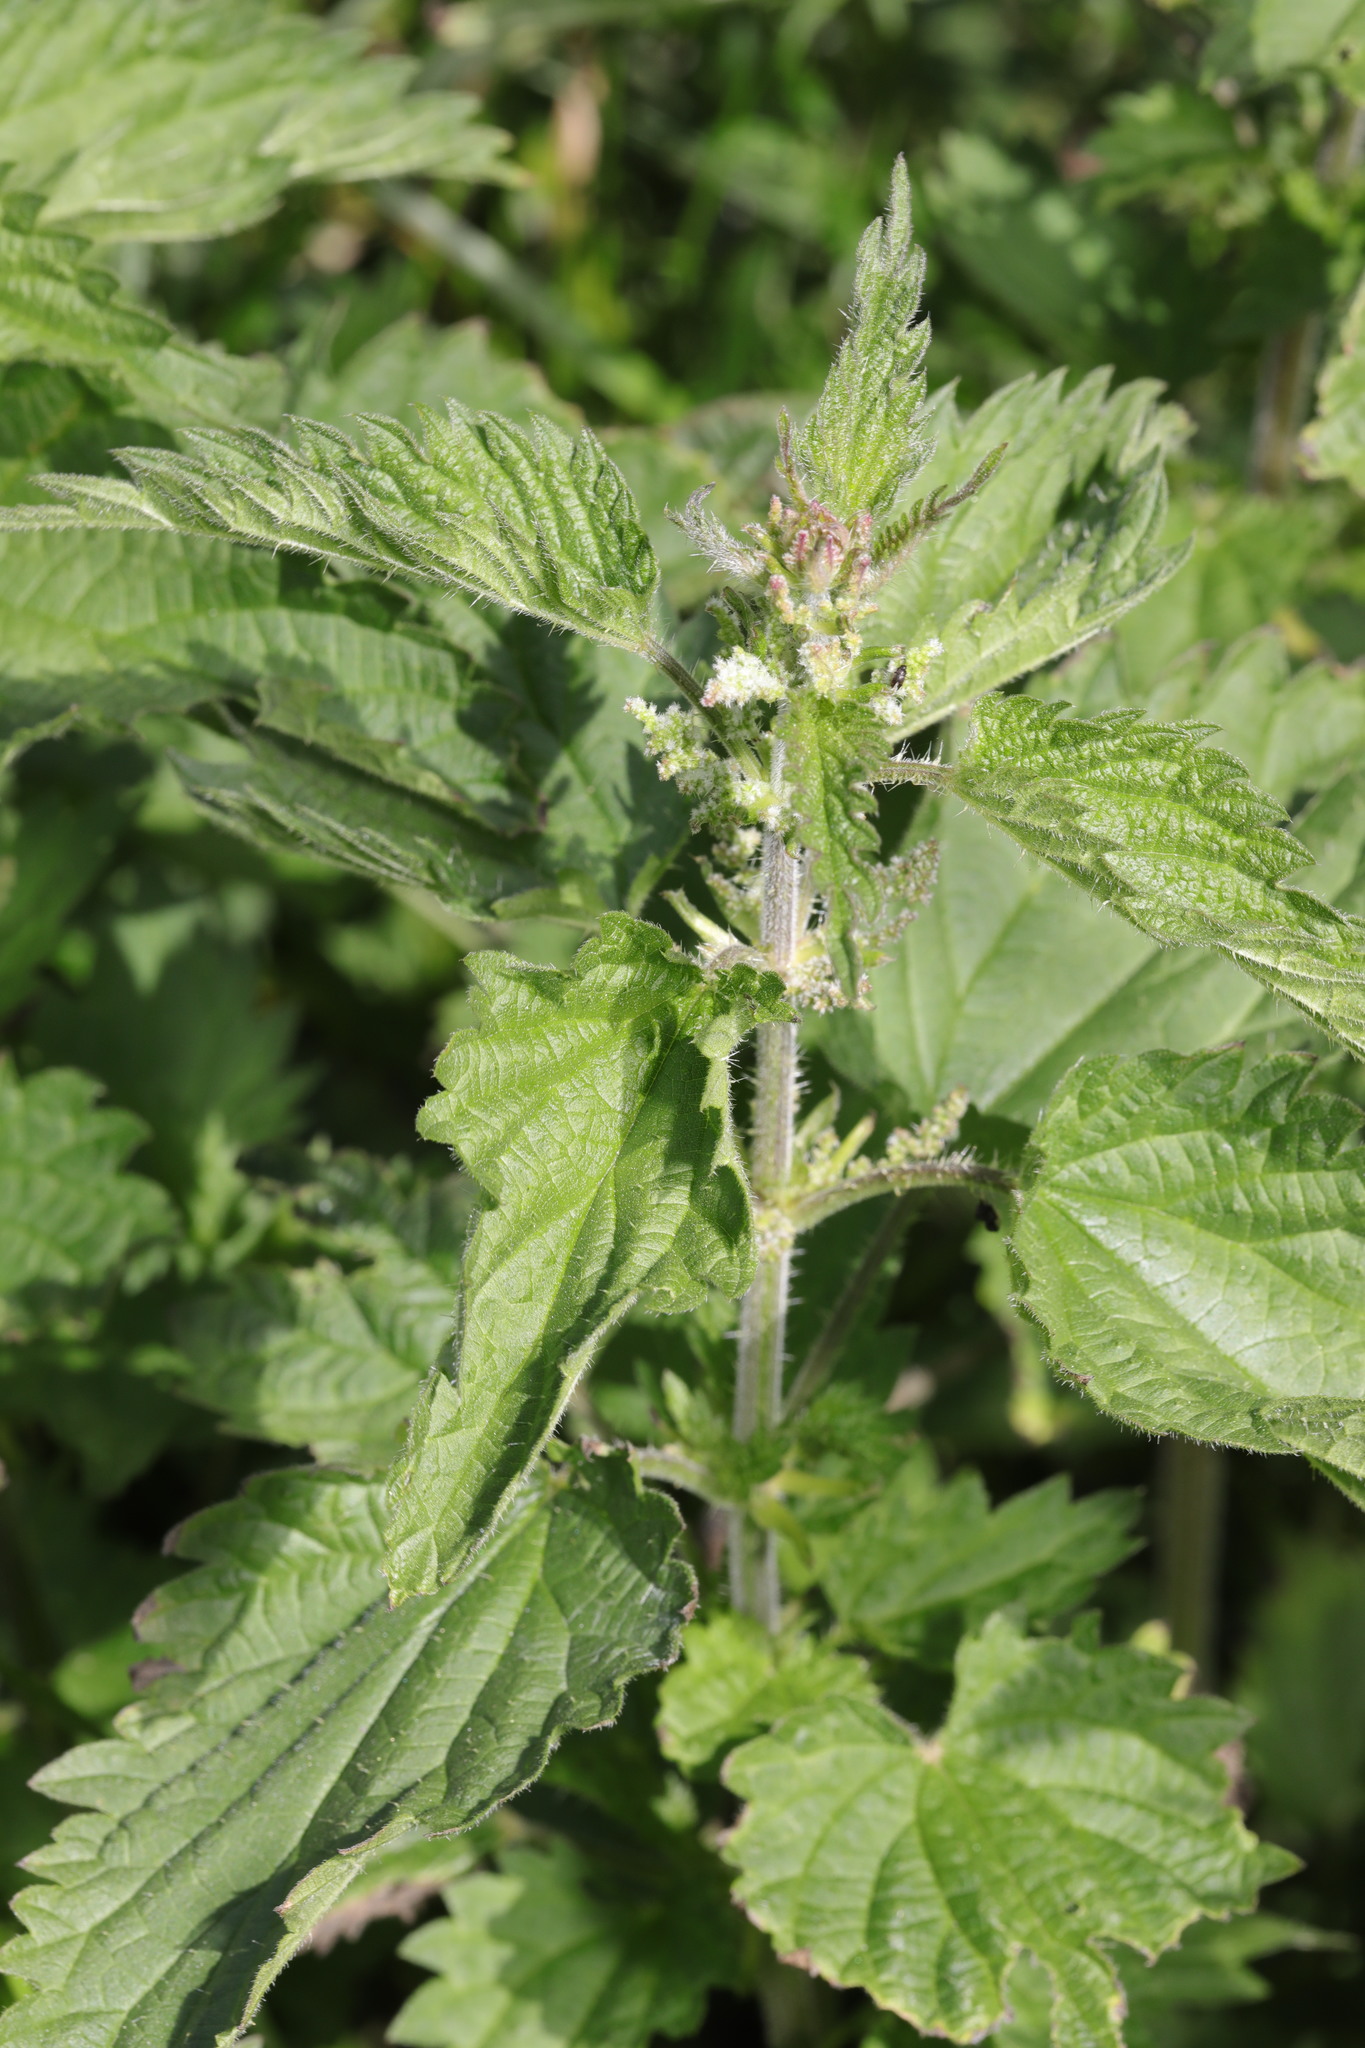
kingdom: Plantae
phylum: Tracheophyta
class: Magnoliopsida
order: Rosales
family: Urticaceae
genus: Urtica
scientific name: Urtica dioica
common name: Common nettle
